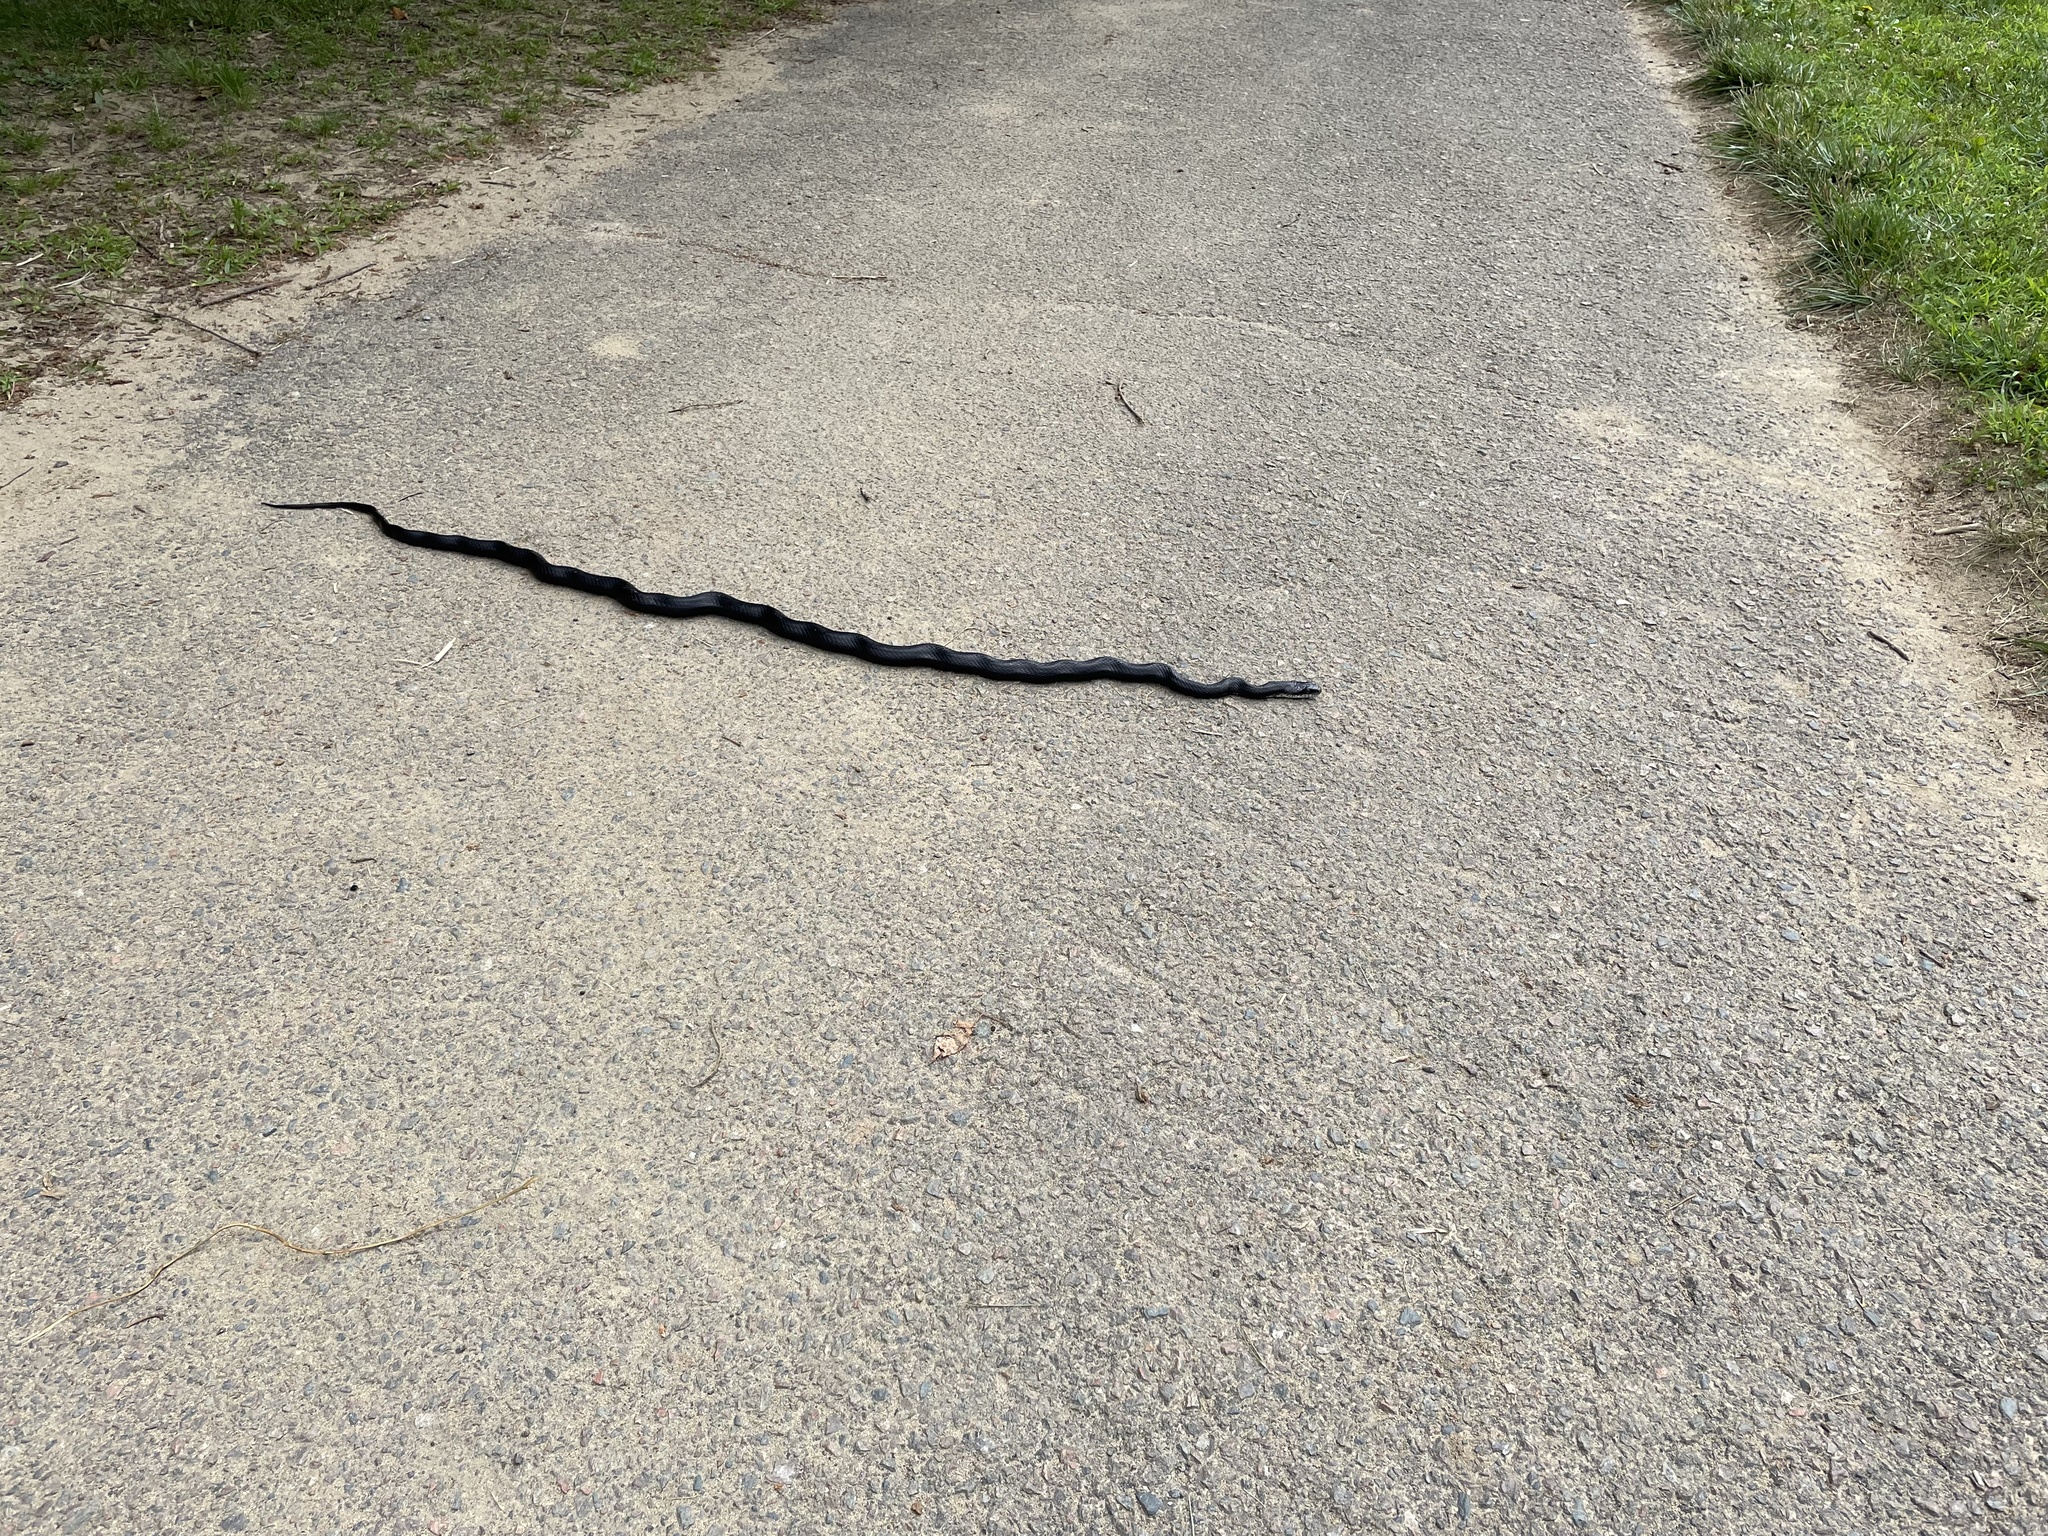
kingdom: Animalia
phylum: Chordata
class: Squamata
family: Colubridae
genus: Pantherophis
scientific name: Pantherophis
